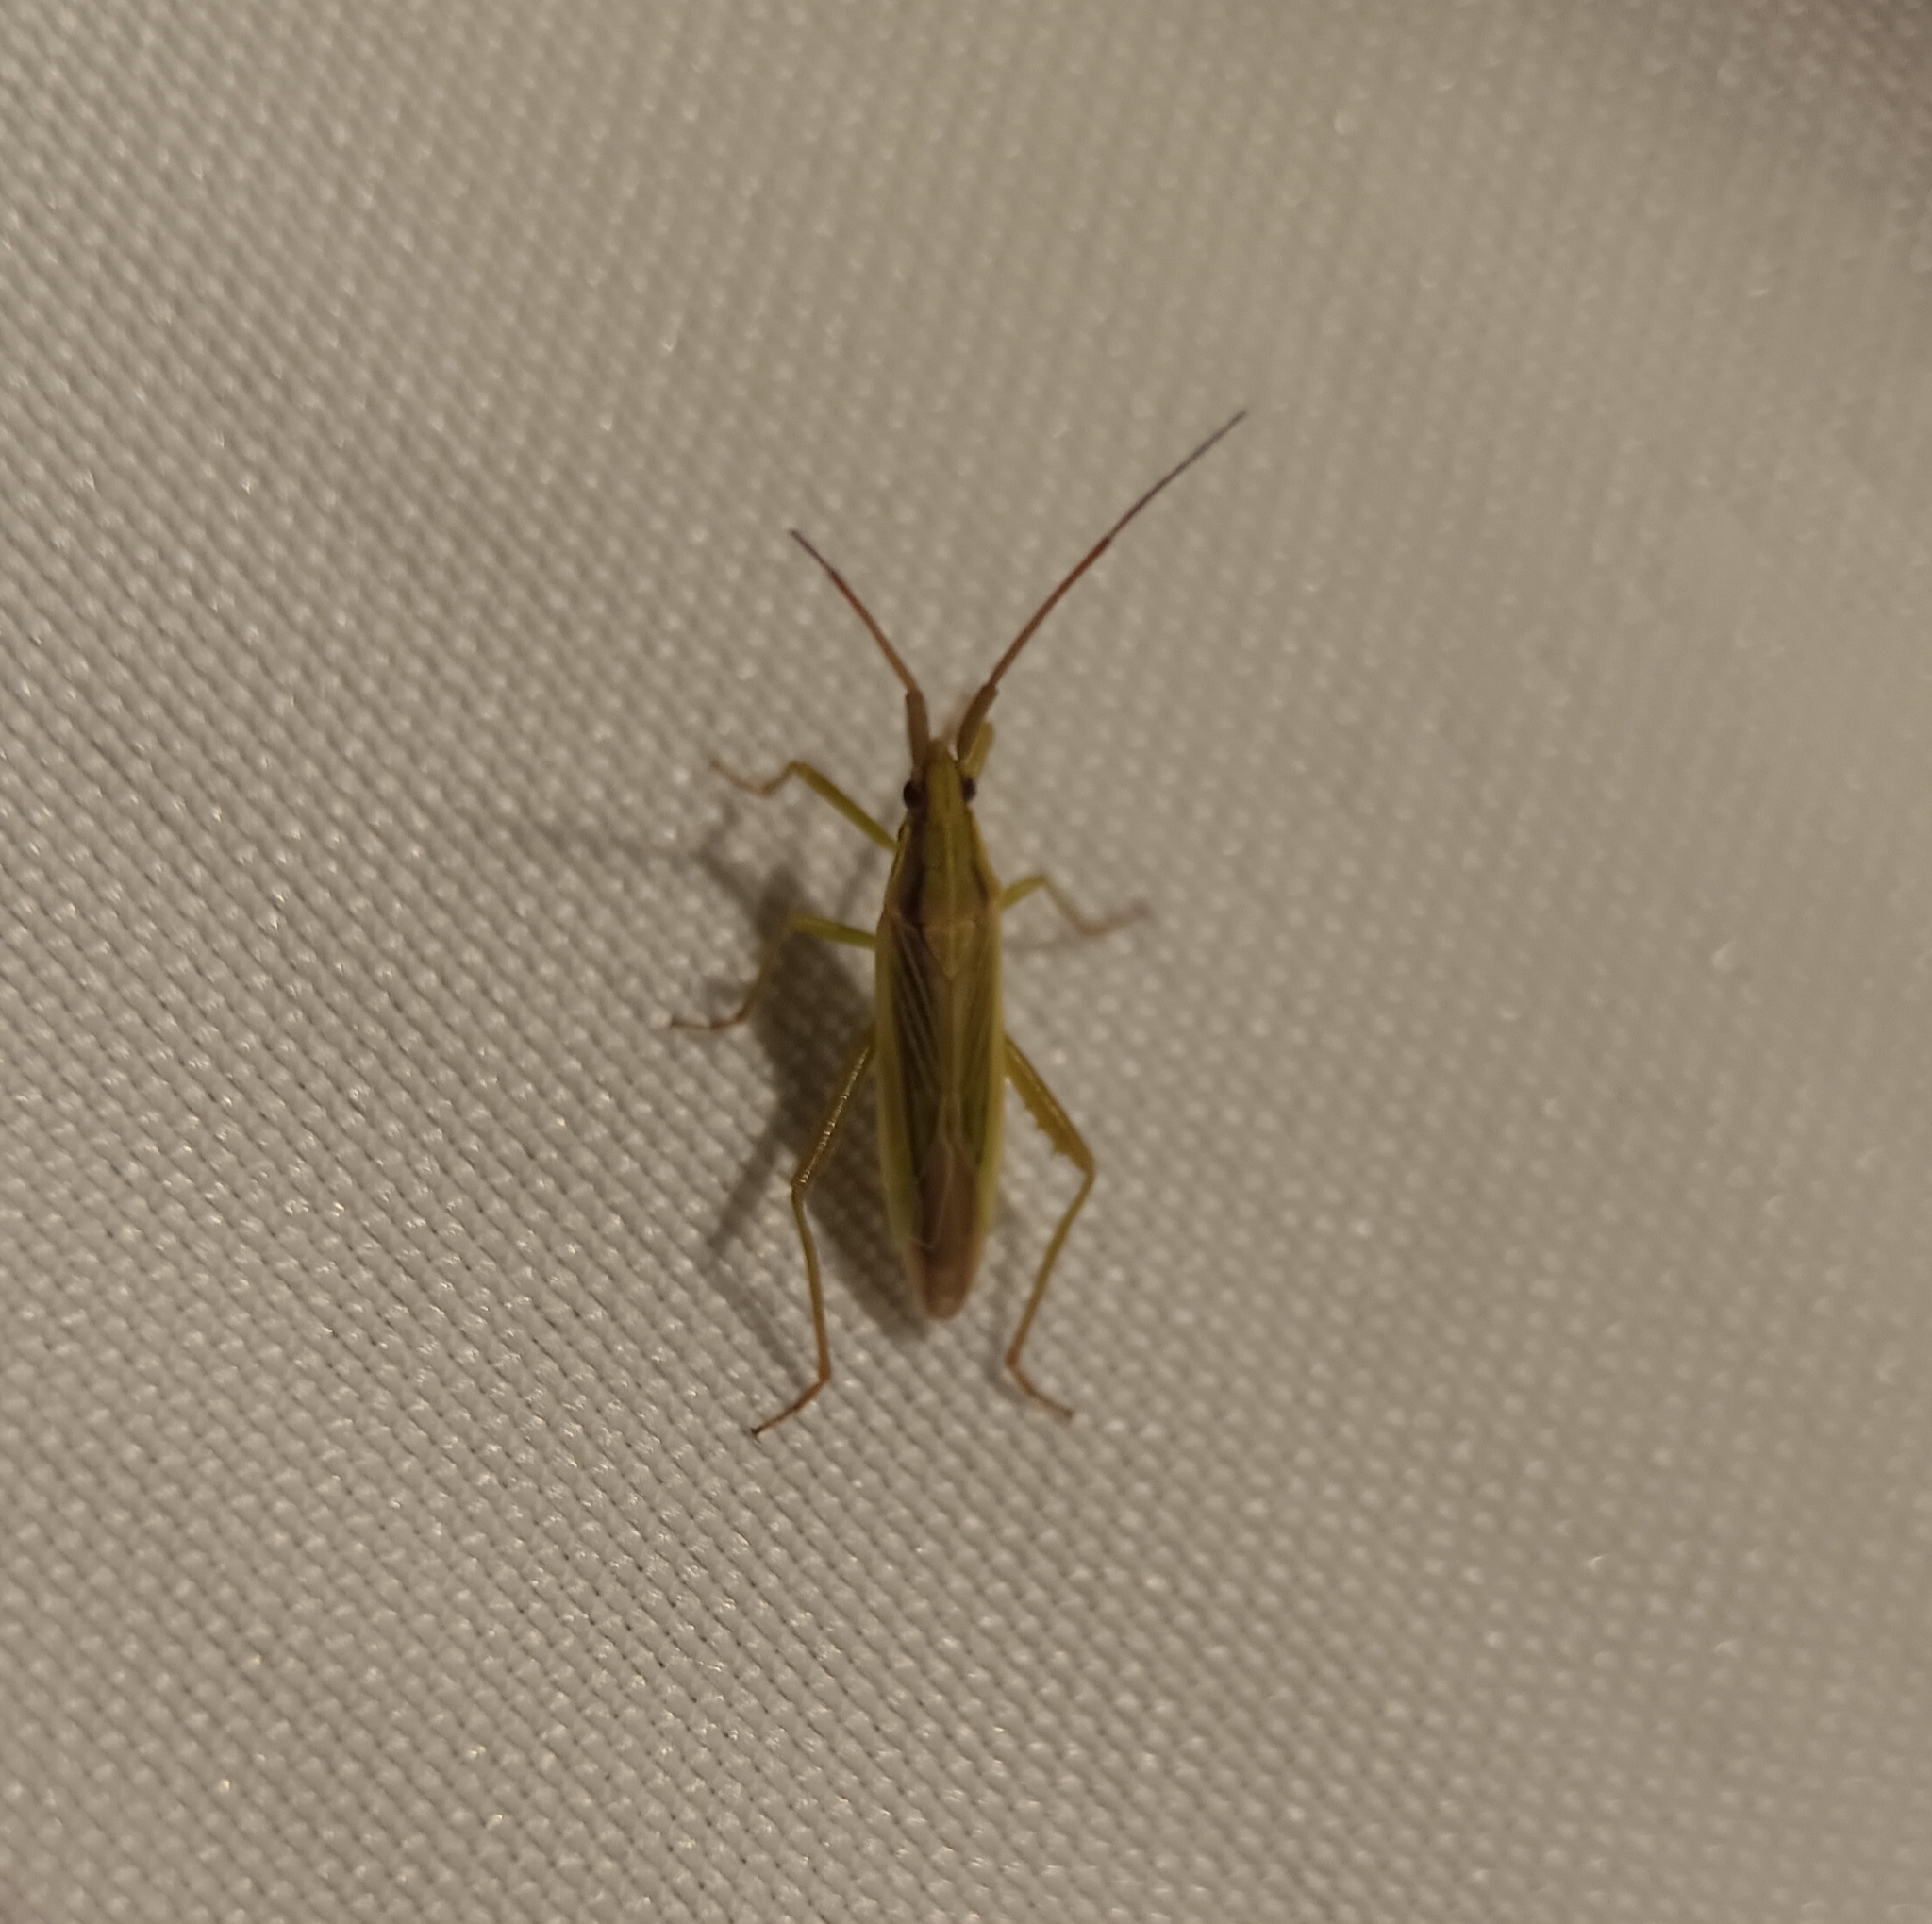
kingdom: Animalia
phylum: Arthropoda
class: Insecta
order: Hemiptera
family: Miridae
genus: Stenodema
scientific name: Stenodema trispinosa
